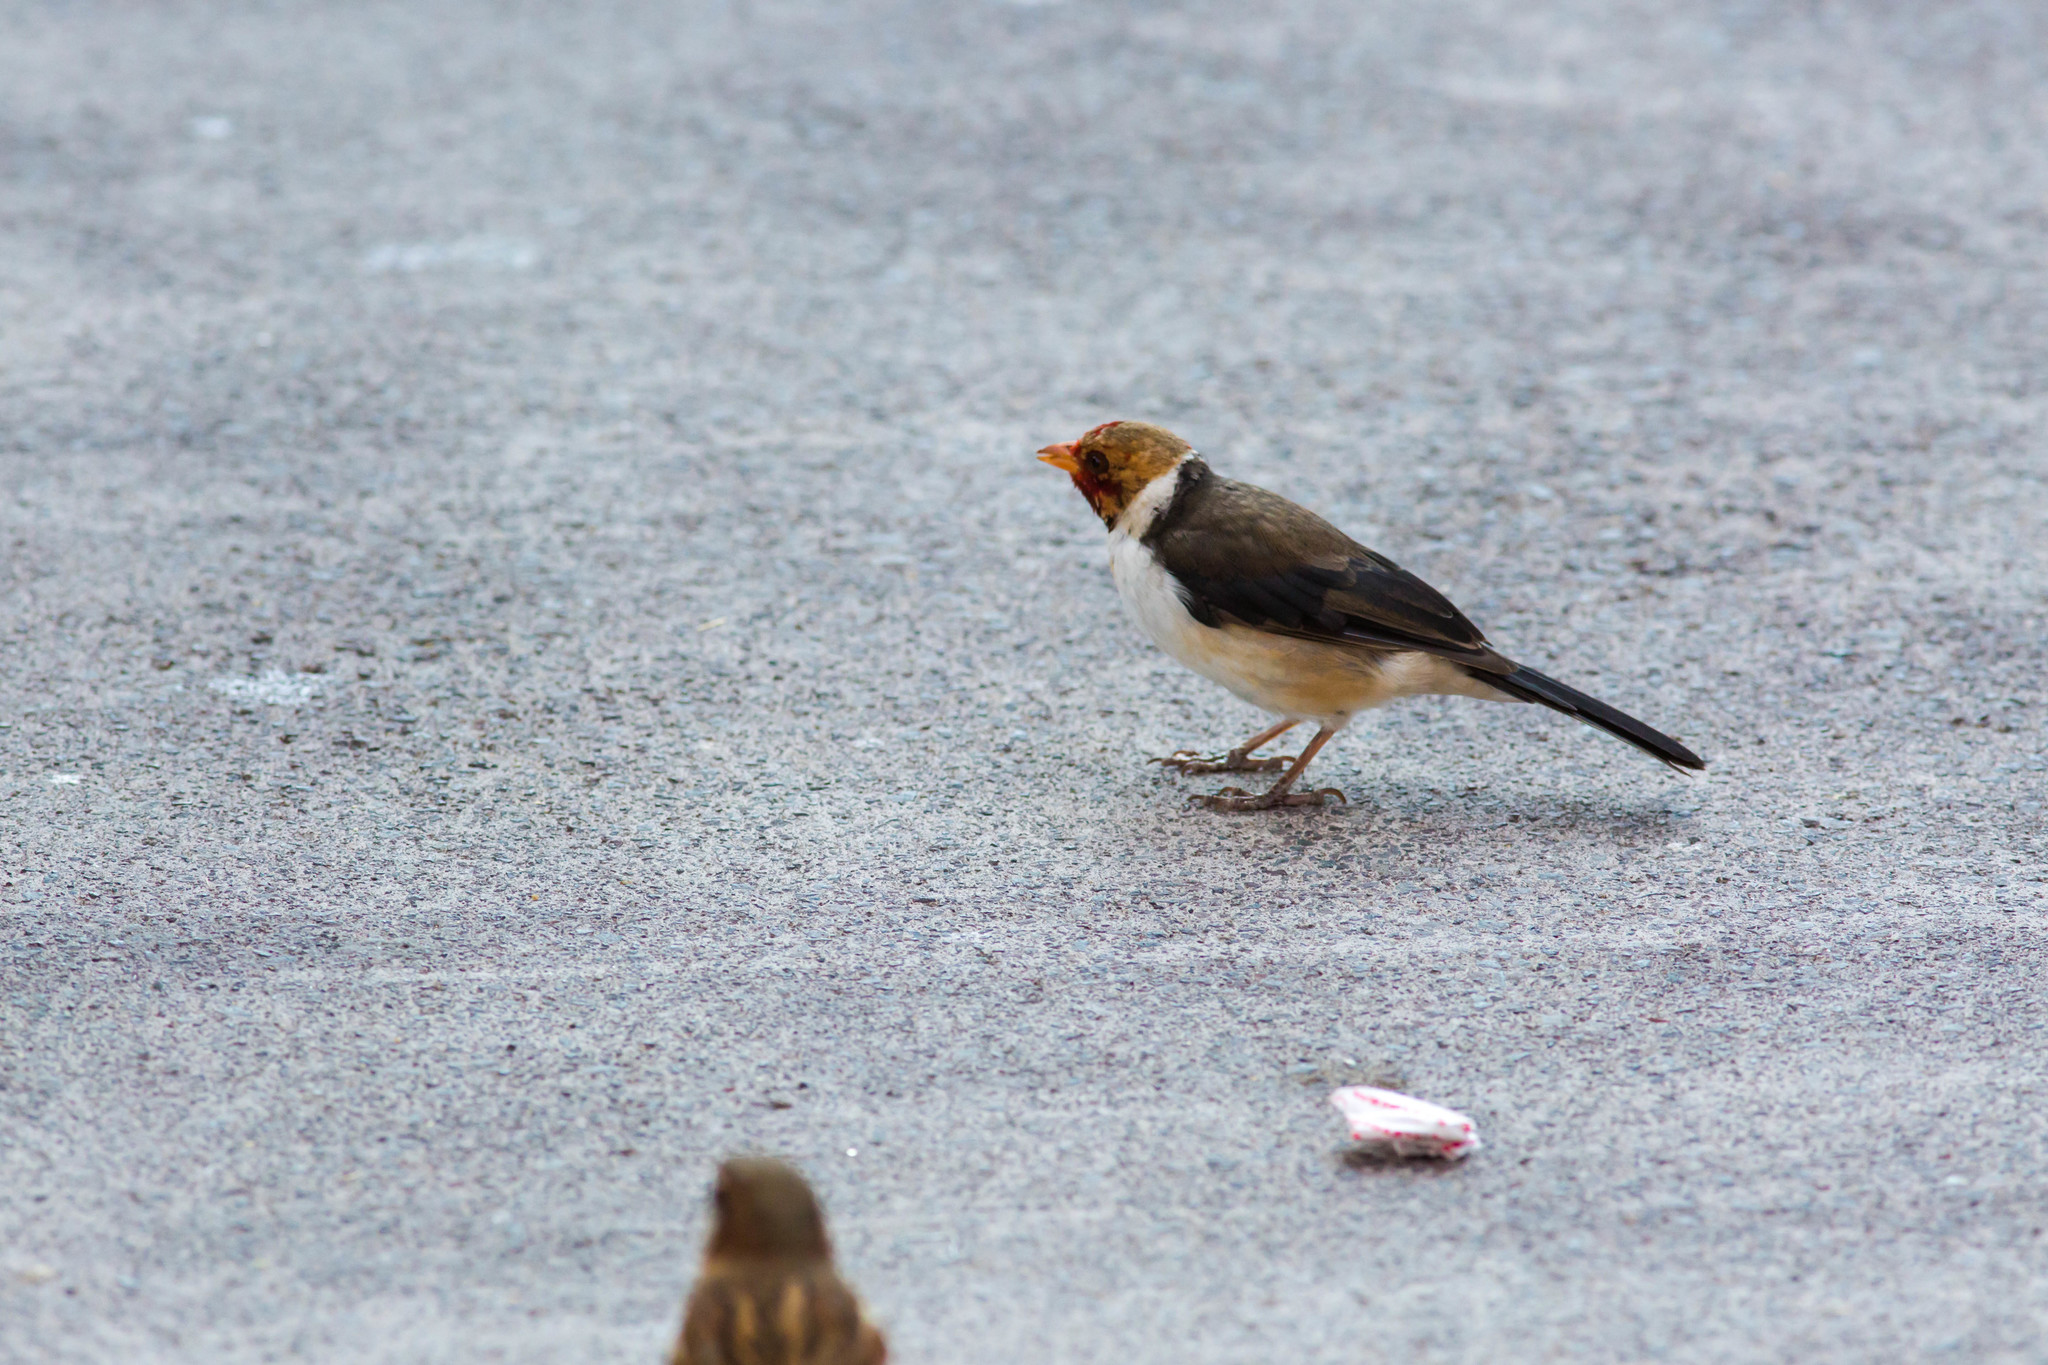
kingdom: Animalia
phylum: Chordata
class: Aves
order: Passeriformes
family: Thraupidae
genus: Paroaria
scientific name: Paroaria capitata
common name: Yellow-billed cardinal
